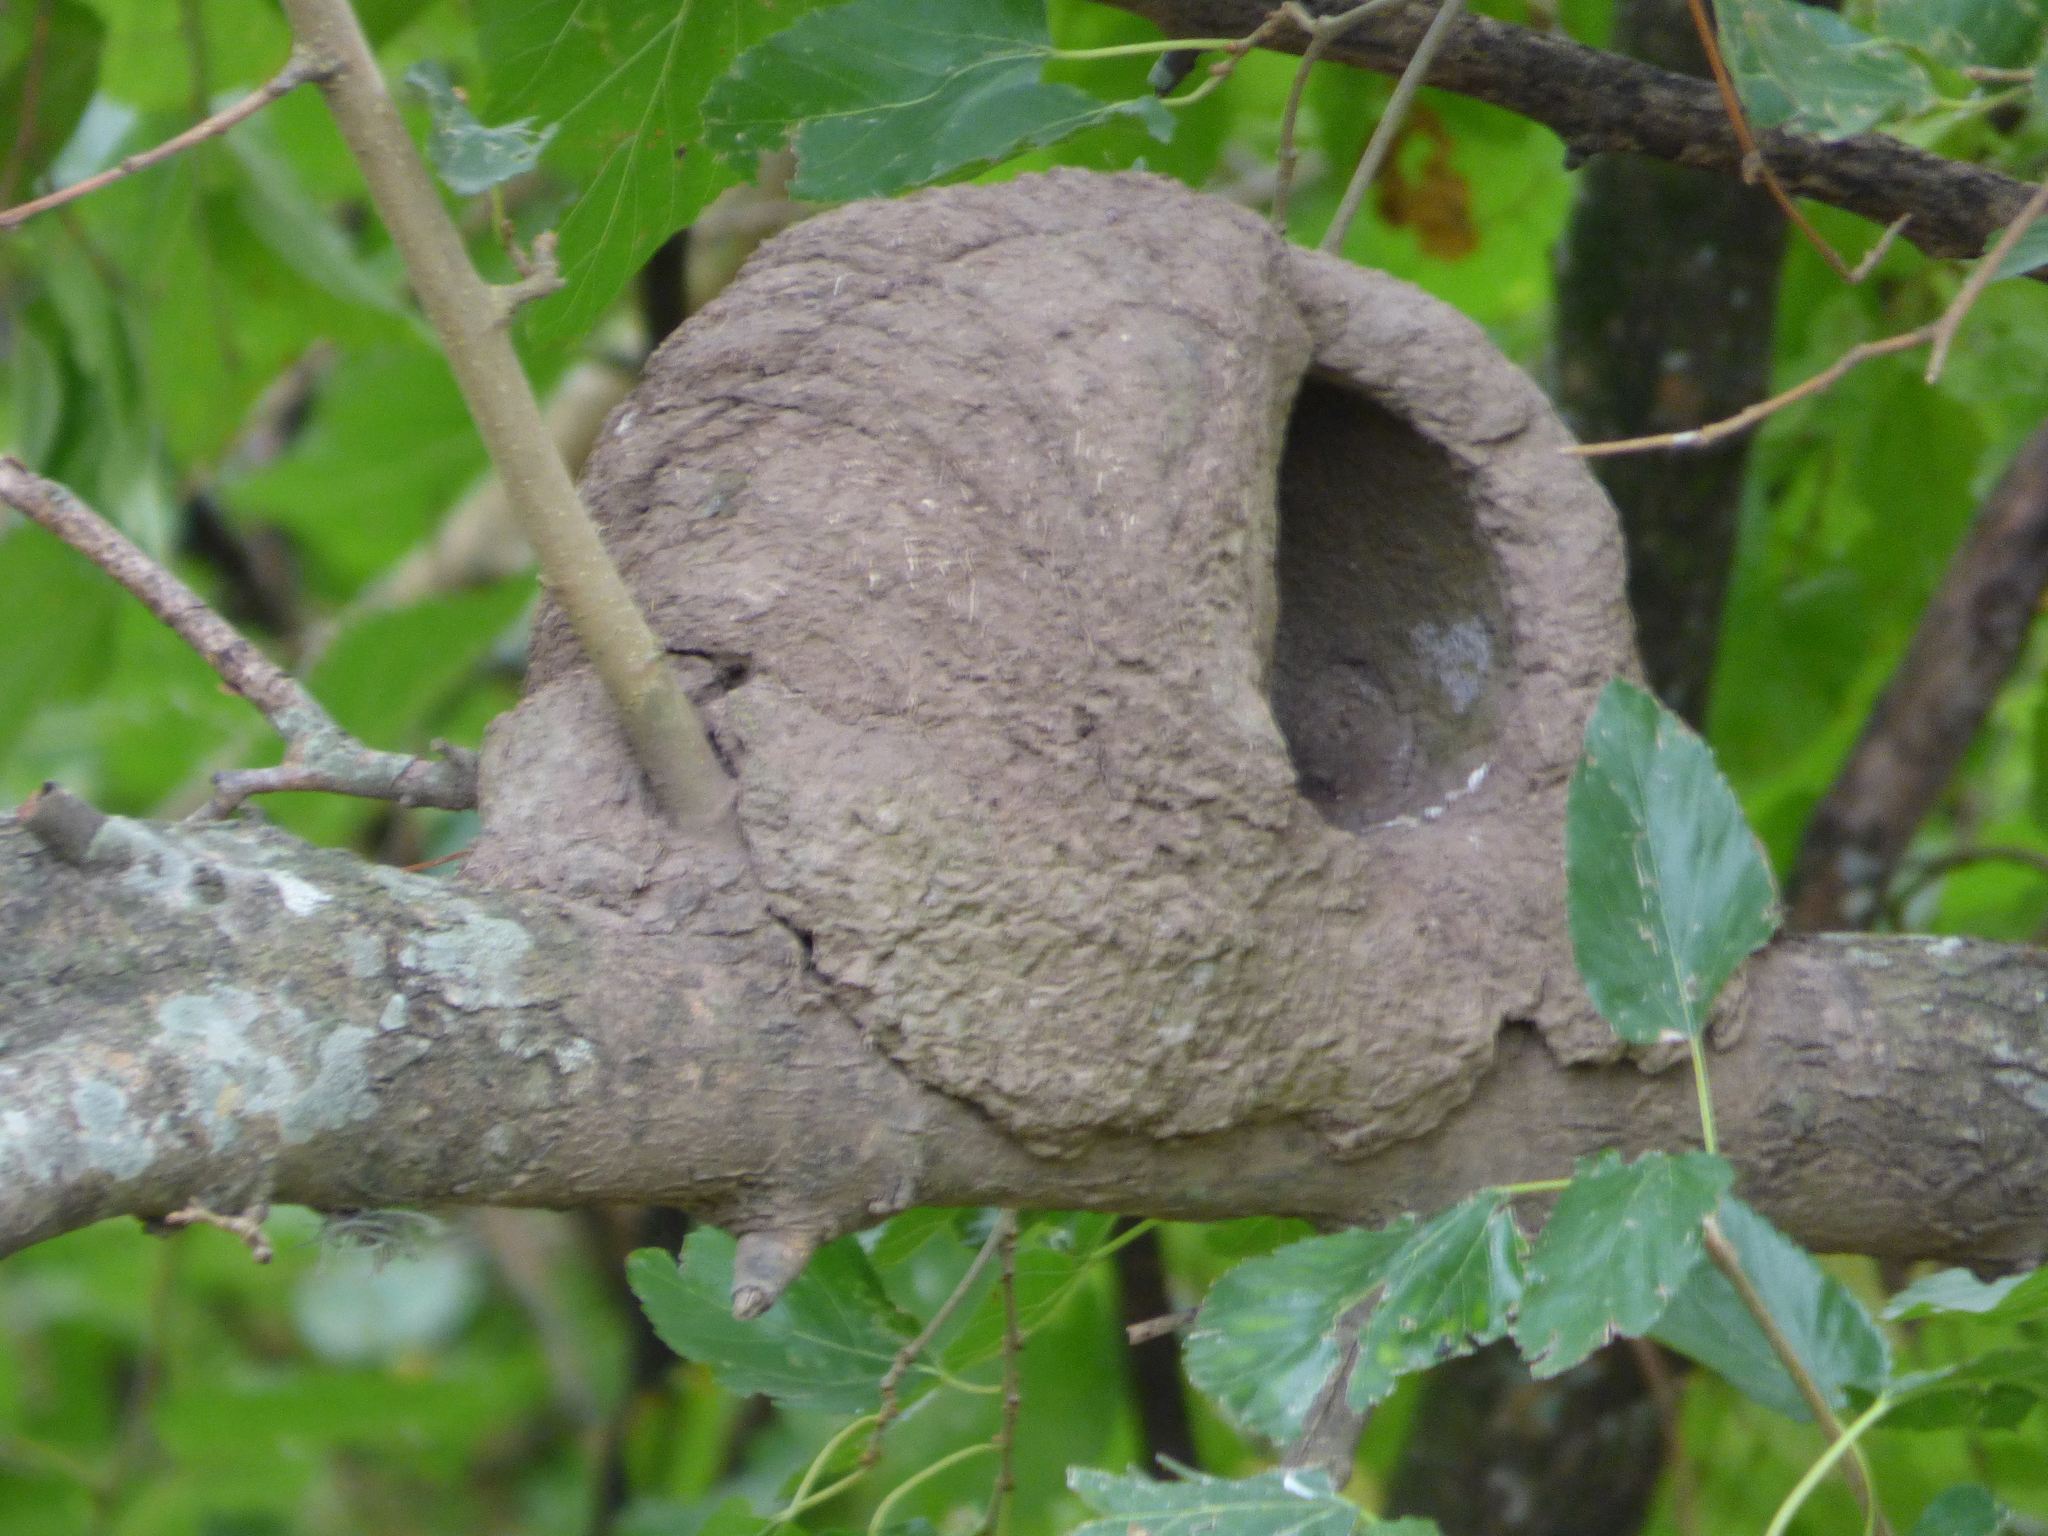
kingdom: Animalia
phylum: Chordata
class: Aves
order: Passeriformes
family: Furnariidae
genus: Furnarius
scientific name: Furnarius rufus
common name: Rufous hornero
